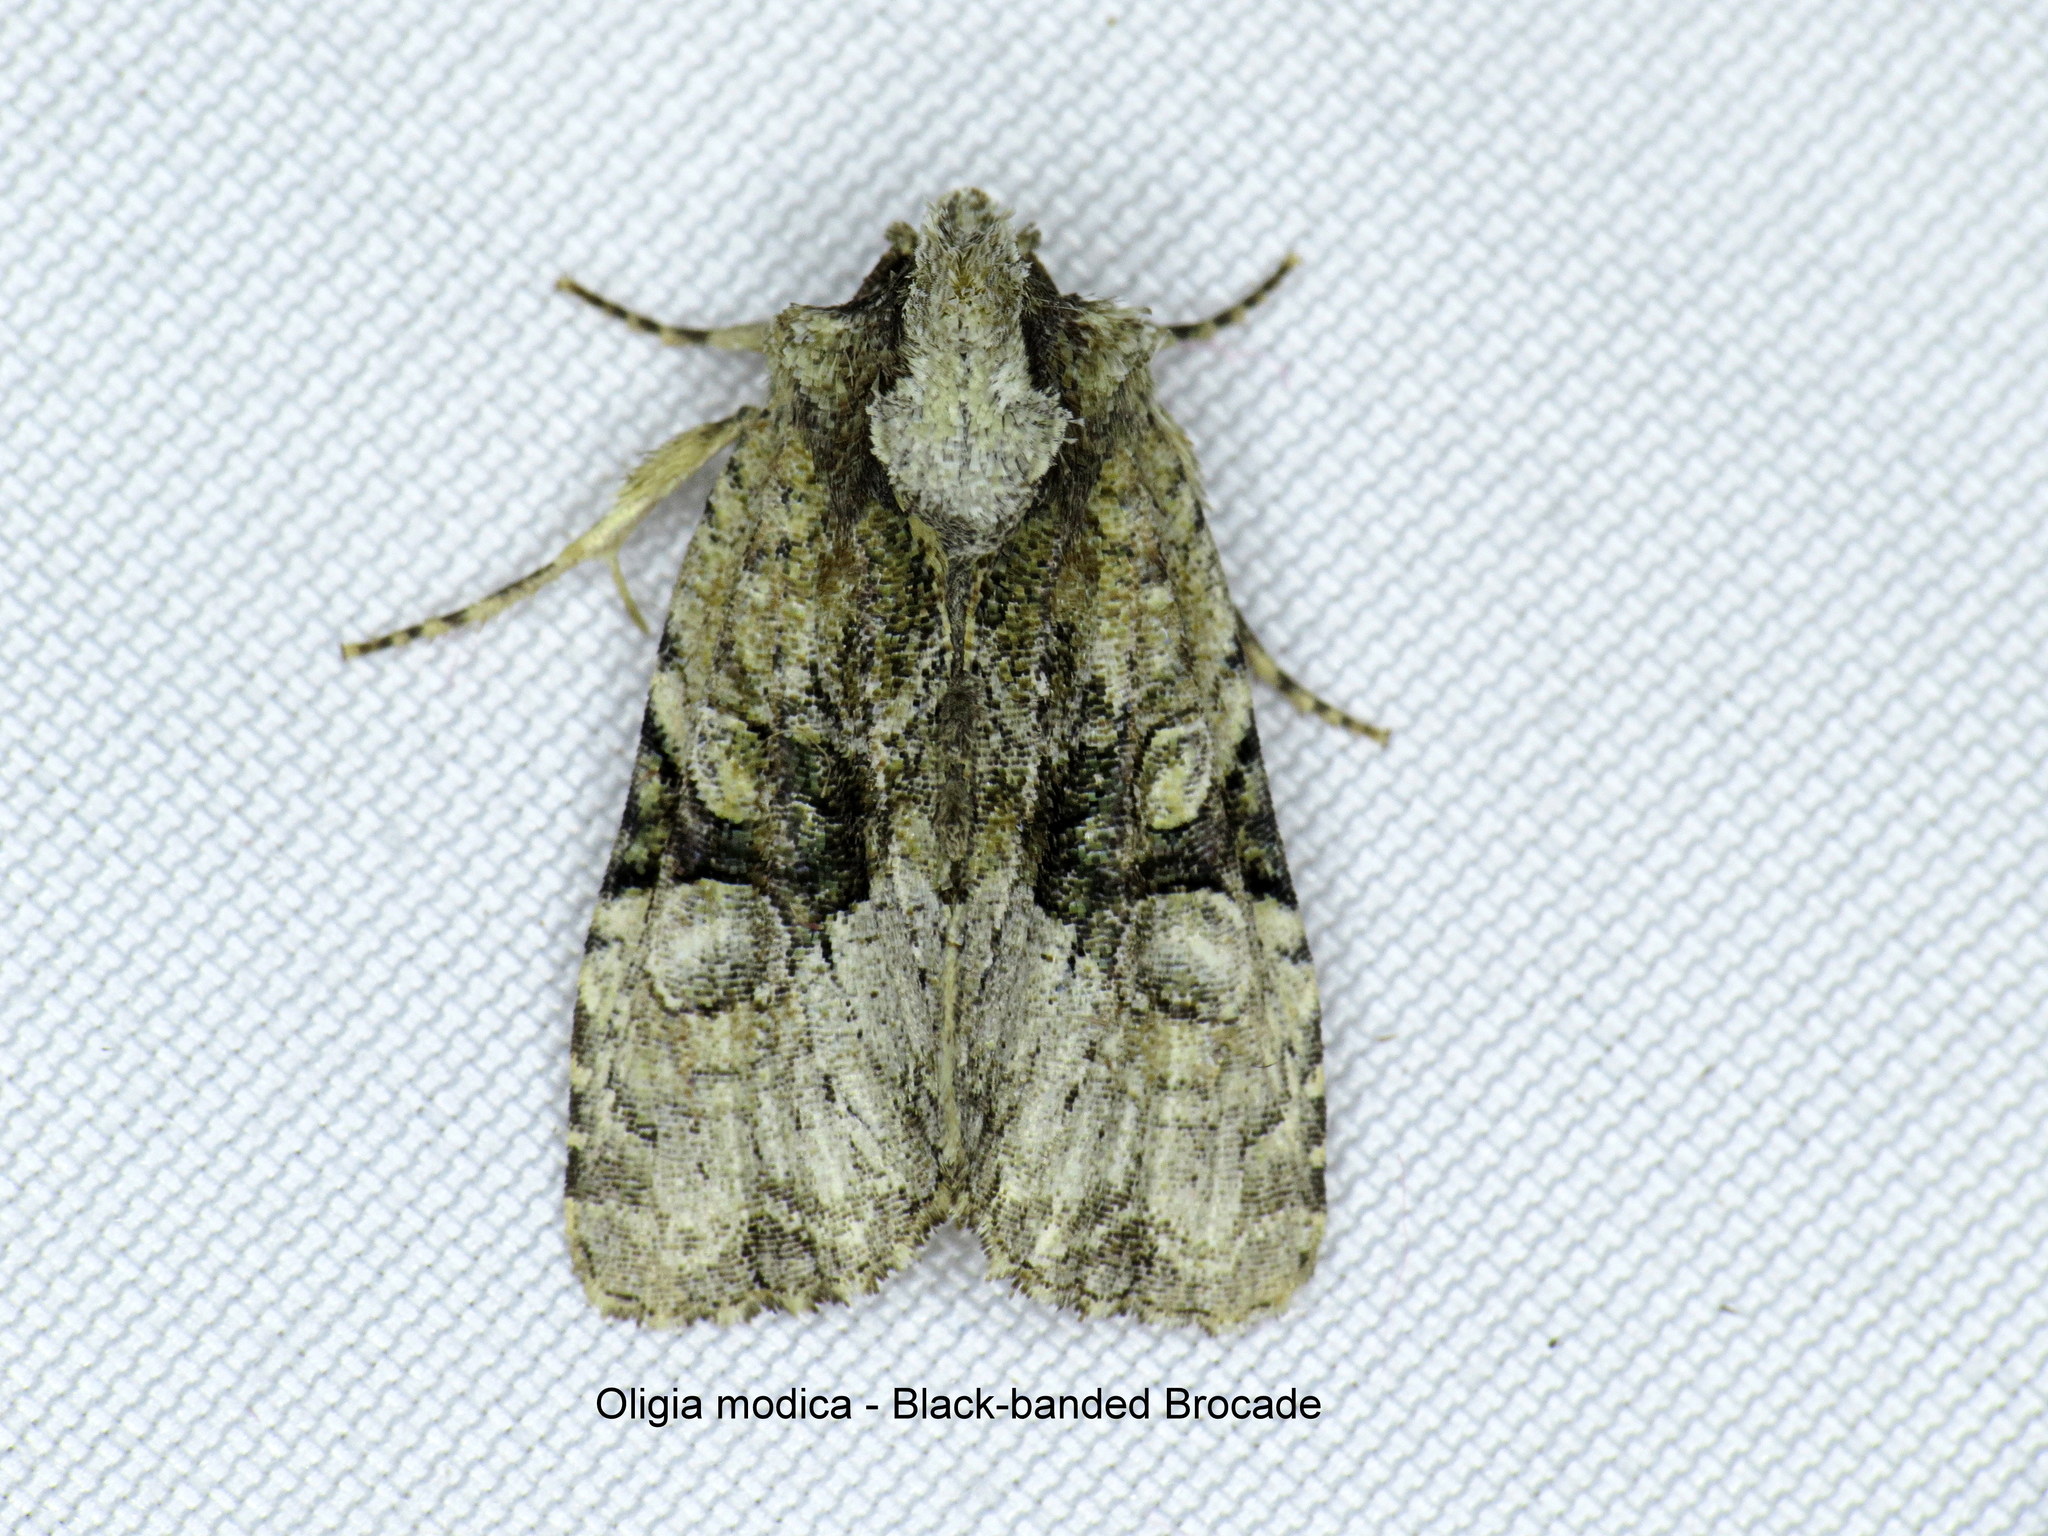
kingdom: Animalia
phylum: Arthropoda
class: Insecta
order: Lepidoptera
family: Noctuidae
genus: Oligia
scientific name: Oligia modica
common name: Black-banded brocade
